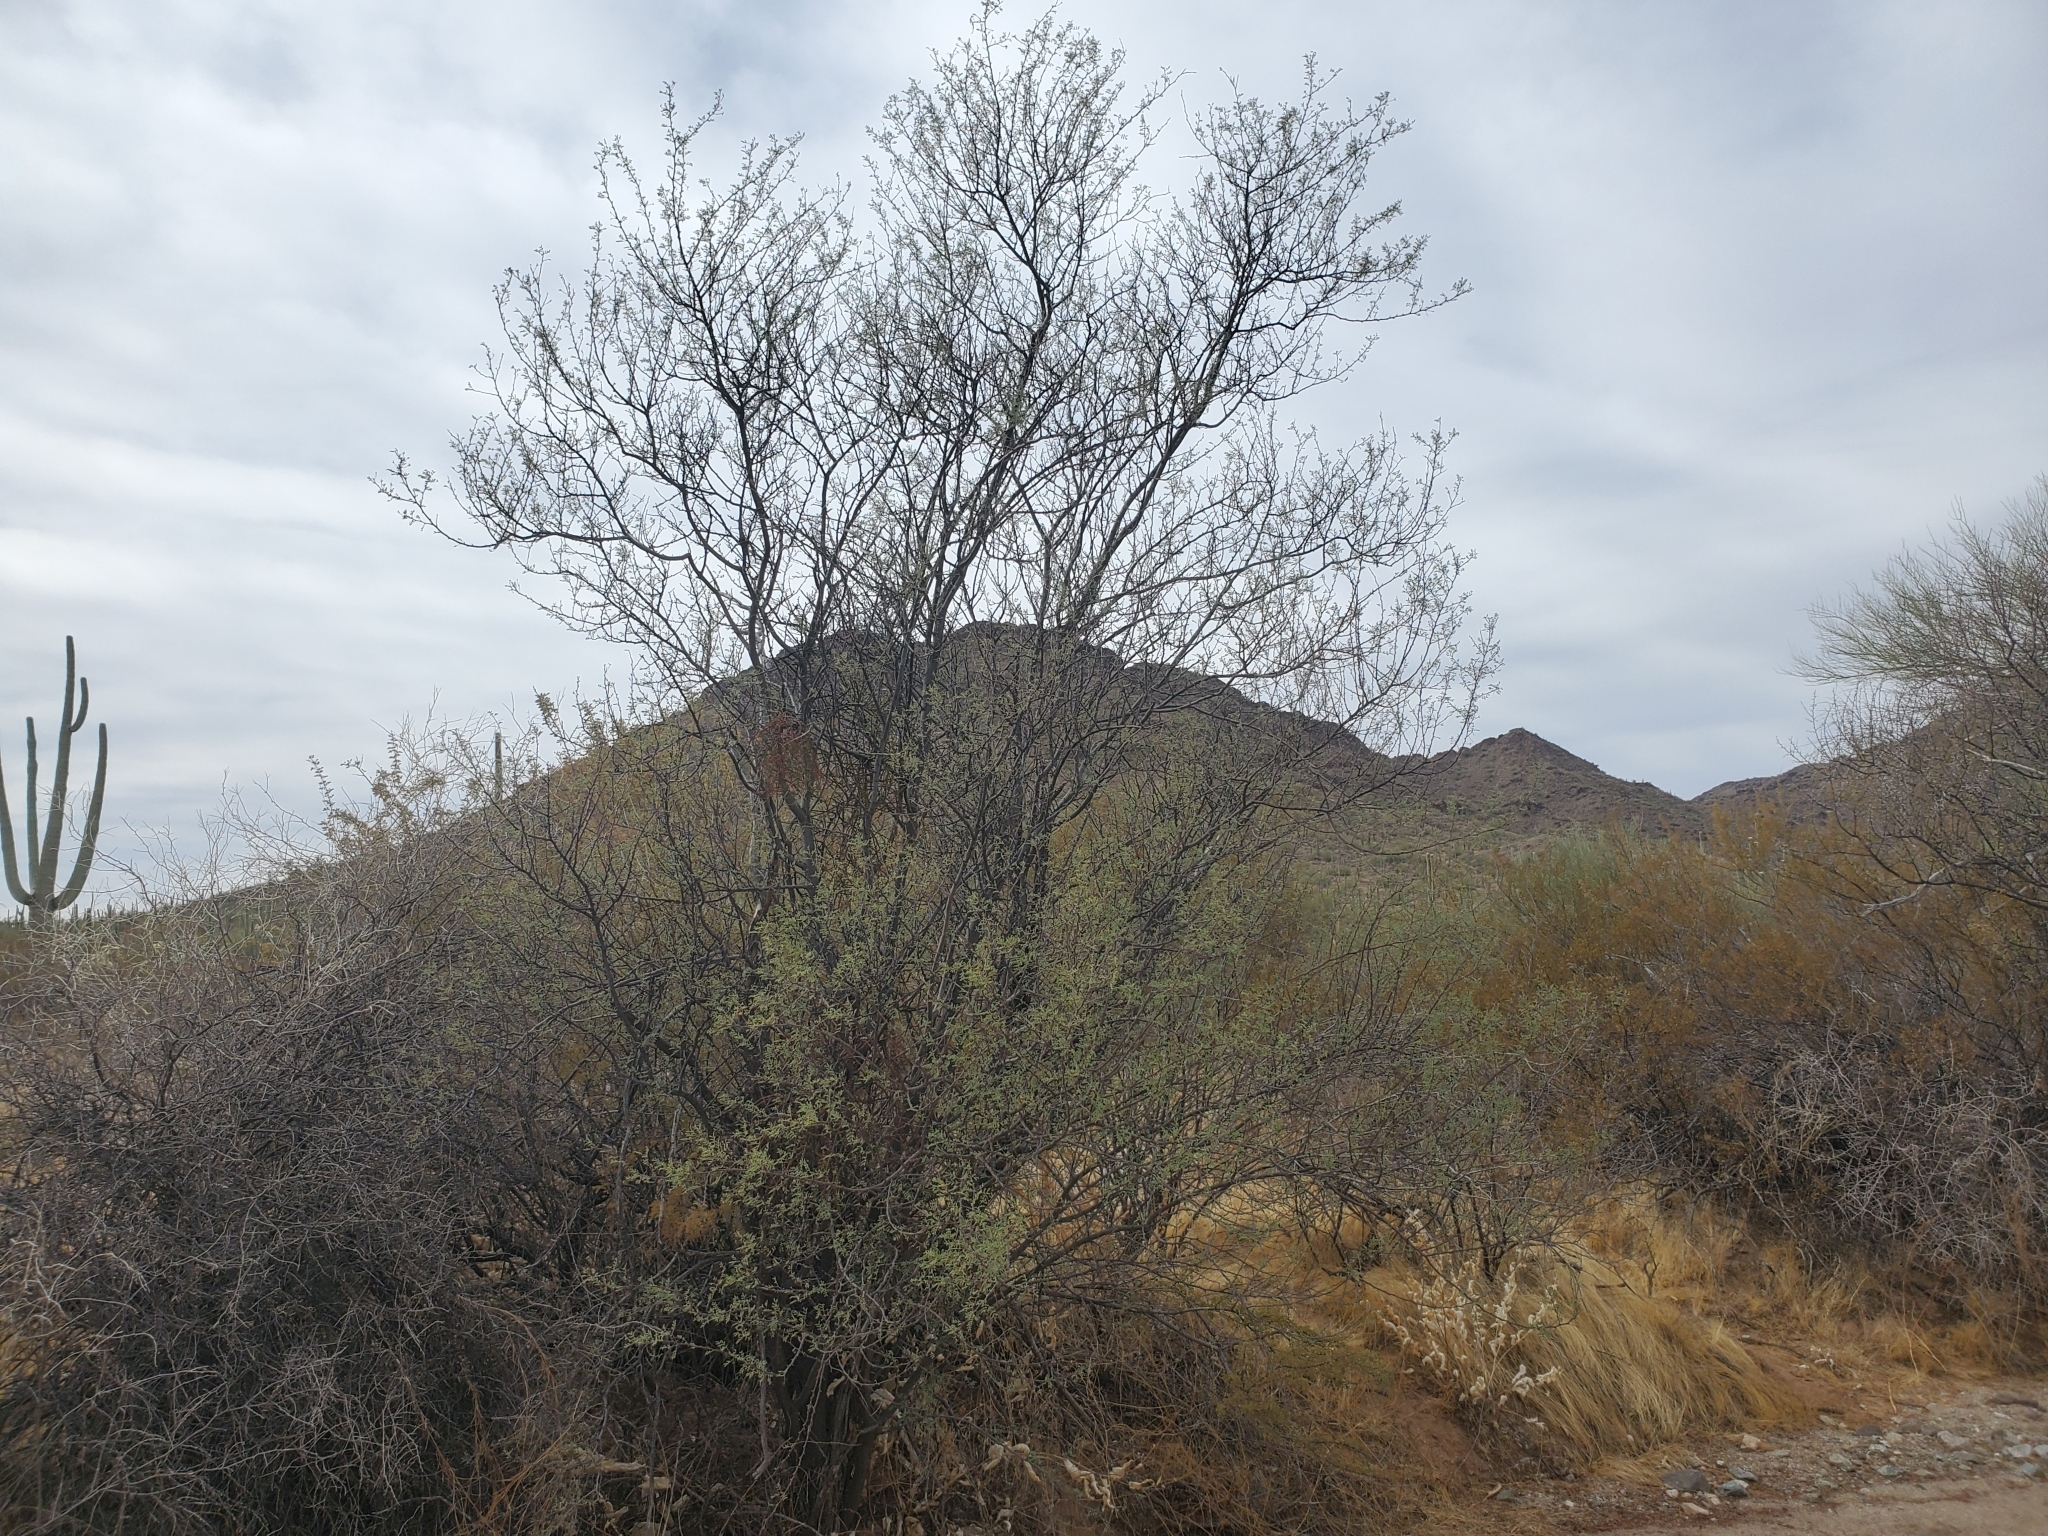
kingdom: Plantae
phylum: Tracheophyta
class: Magnoliopsida
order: Fabales
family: Fabaceae
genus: Vachellia
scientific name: Vachellia constricta
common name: Mescat acacia
